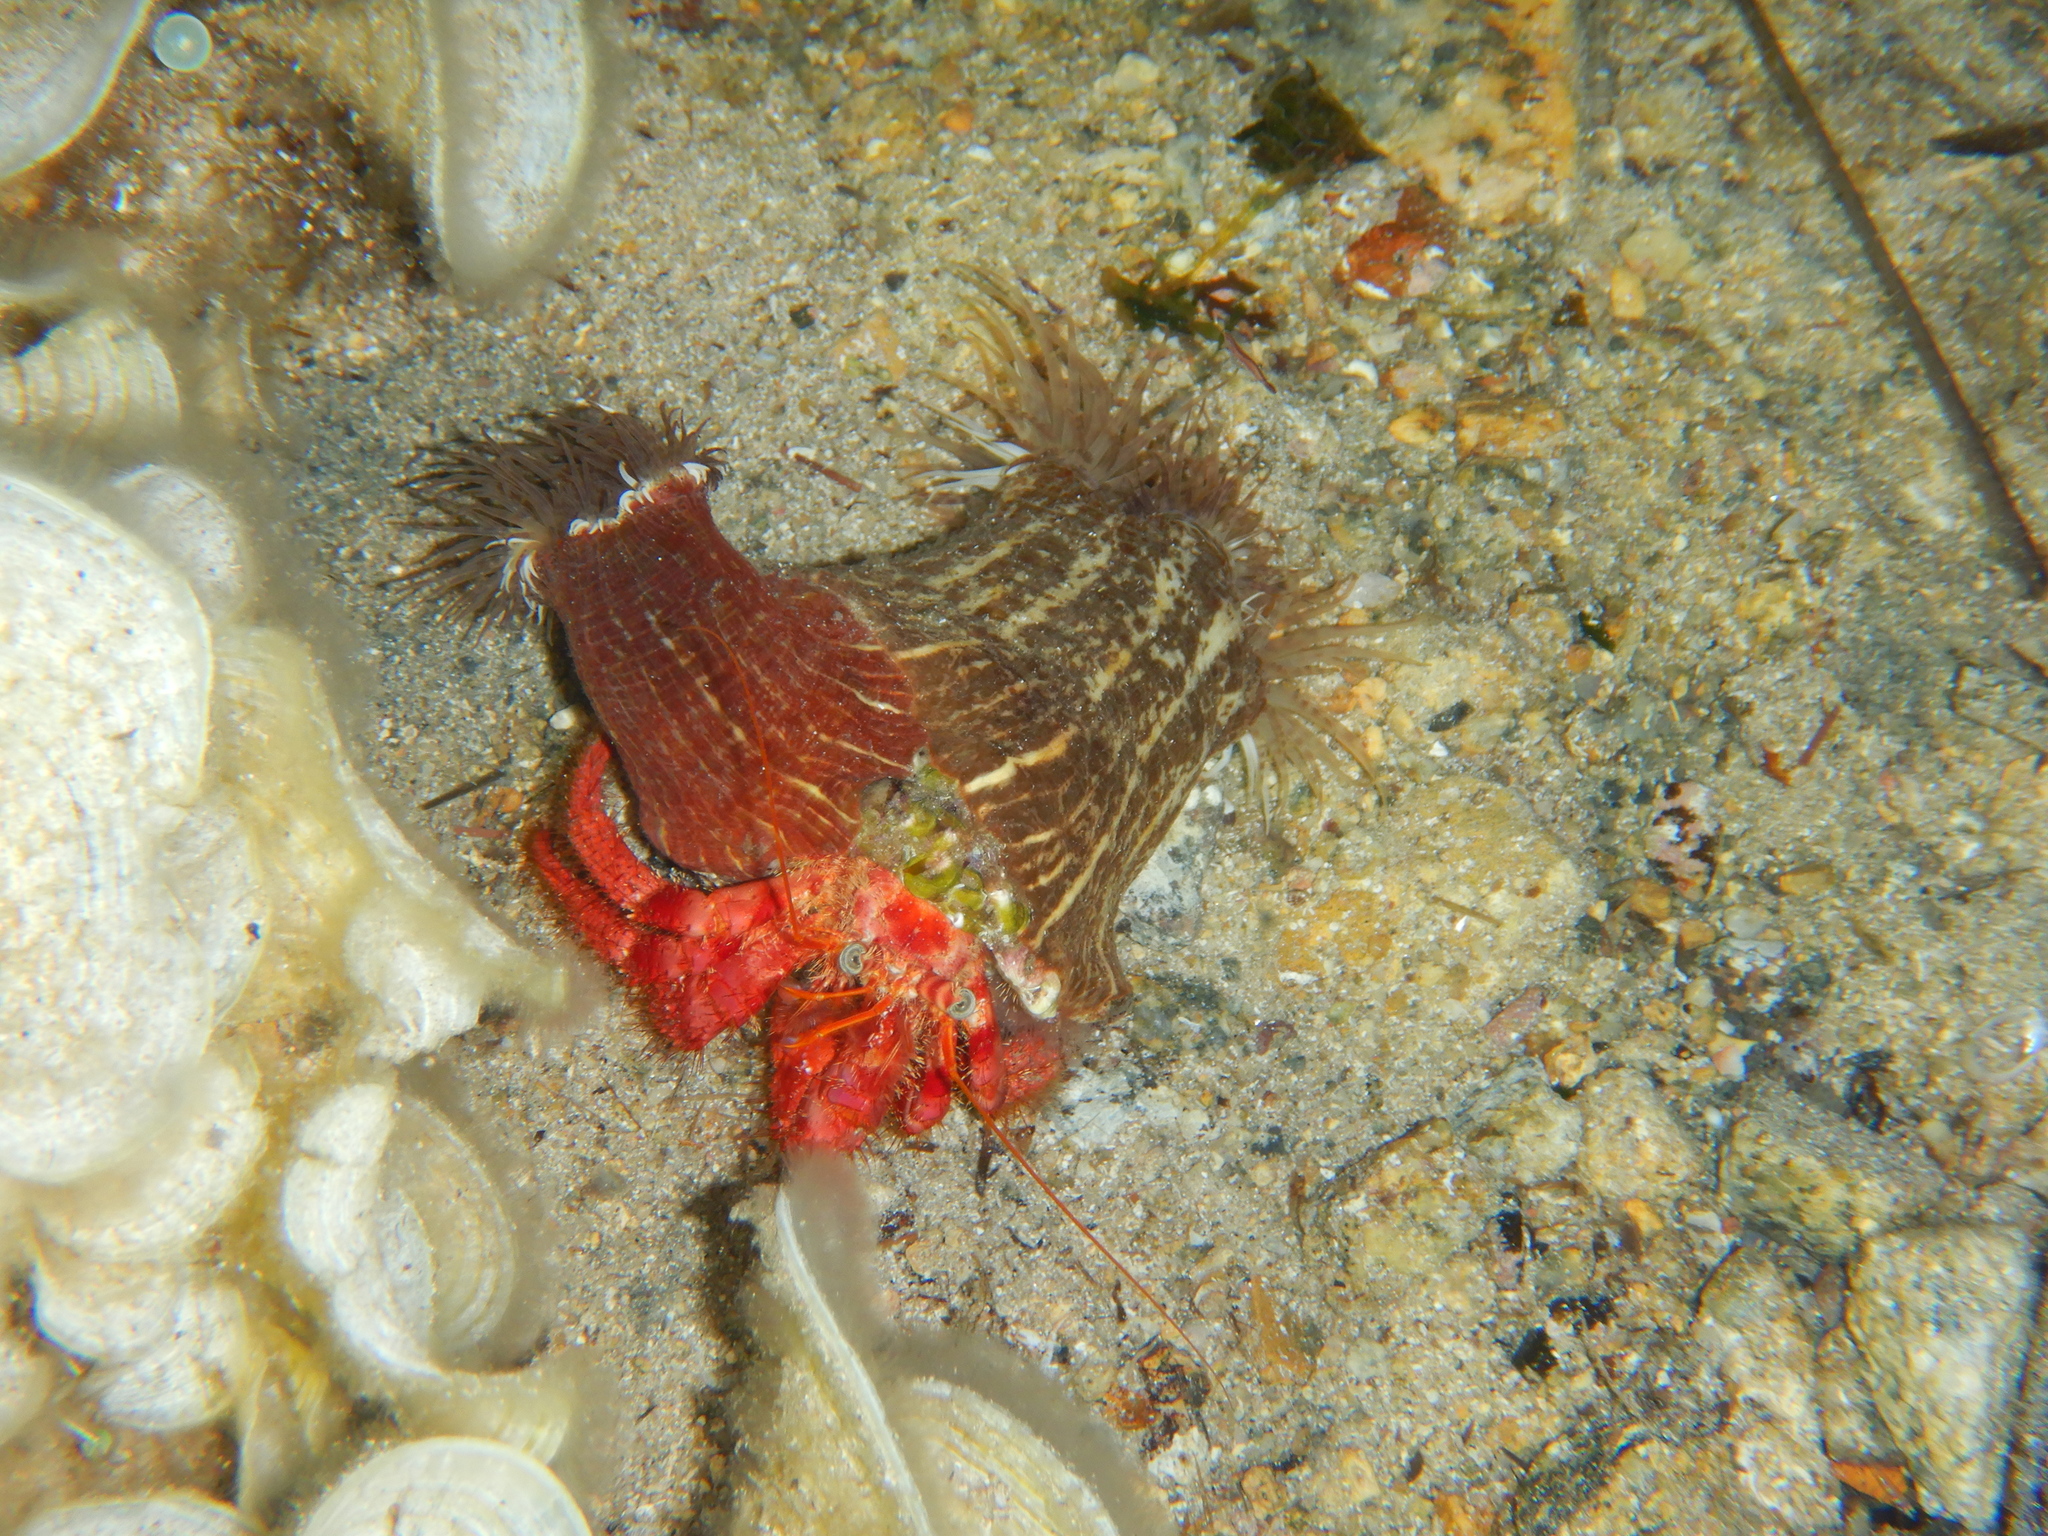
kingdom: Animalia
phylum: Arthropoda
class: Malacostraca
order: Decapoda
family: Diogenidae
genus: Dardanus
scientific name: Dardanus calidus
